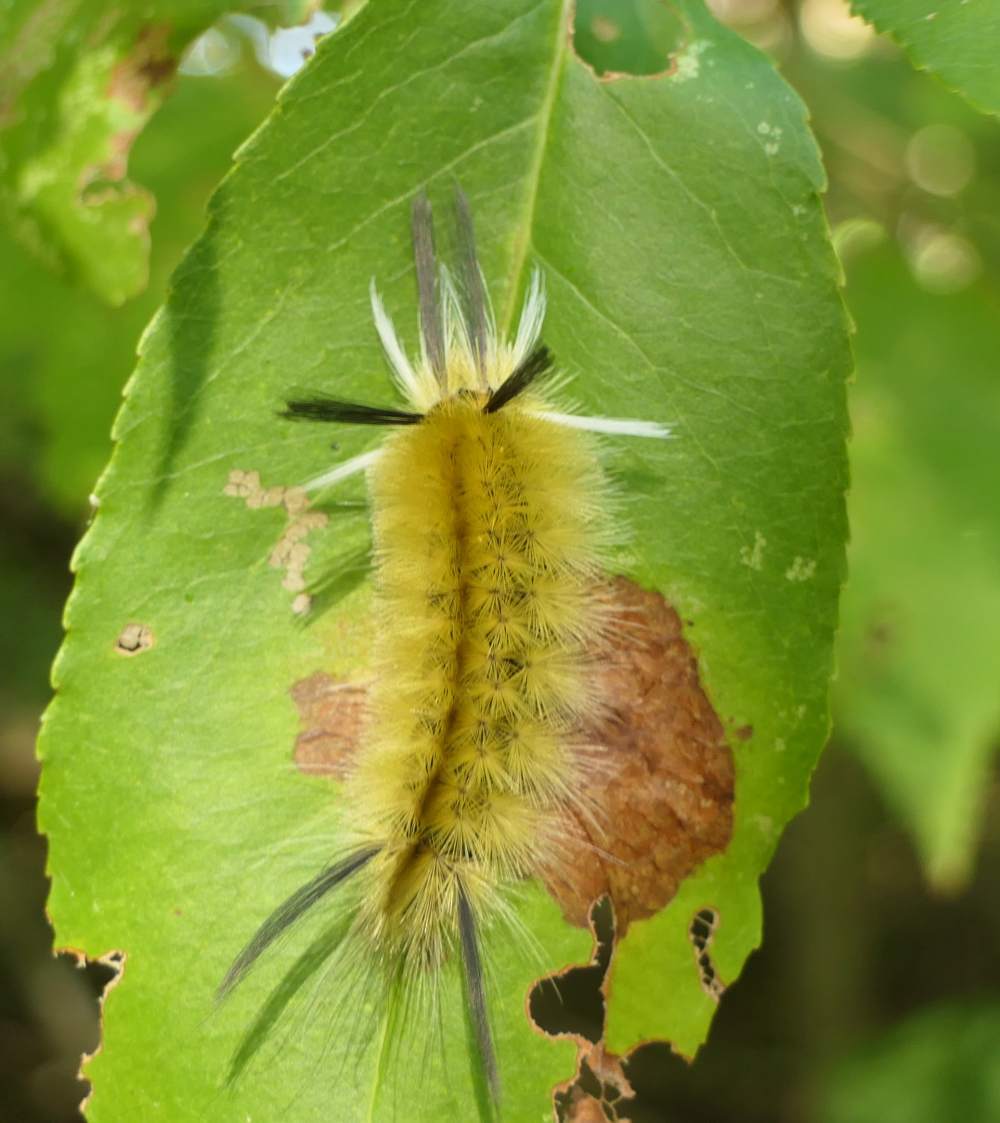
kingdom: Animalia
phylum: Arthropoda
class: Insecta
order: Lepidoptera
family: Erebidae
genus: Halysidota
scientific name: Halysidota tessellaris
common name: Banded tussock moth
